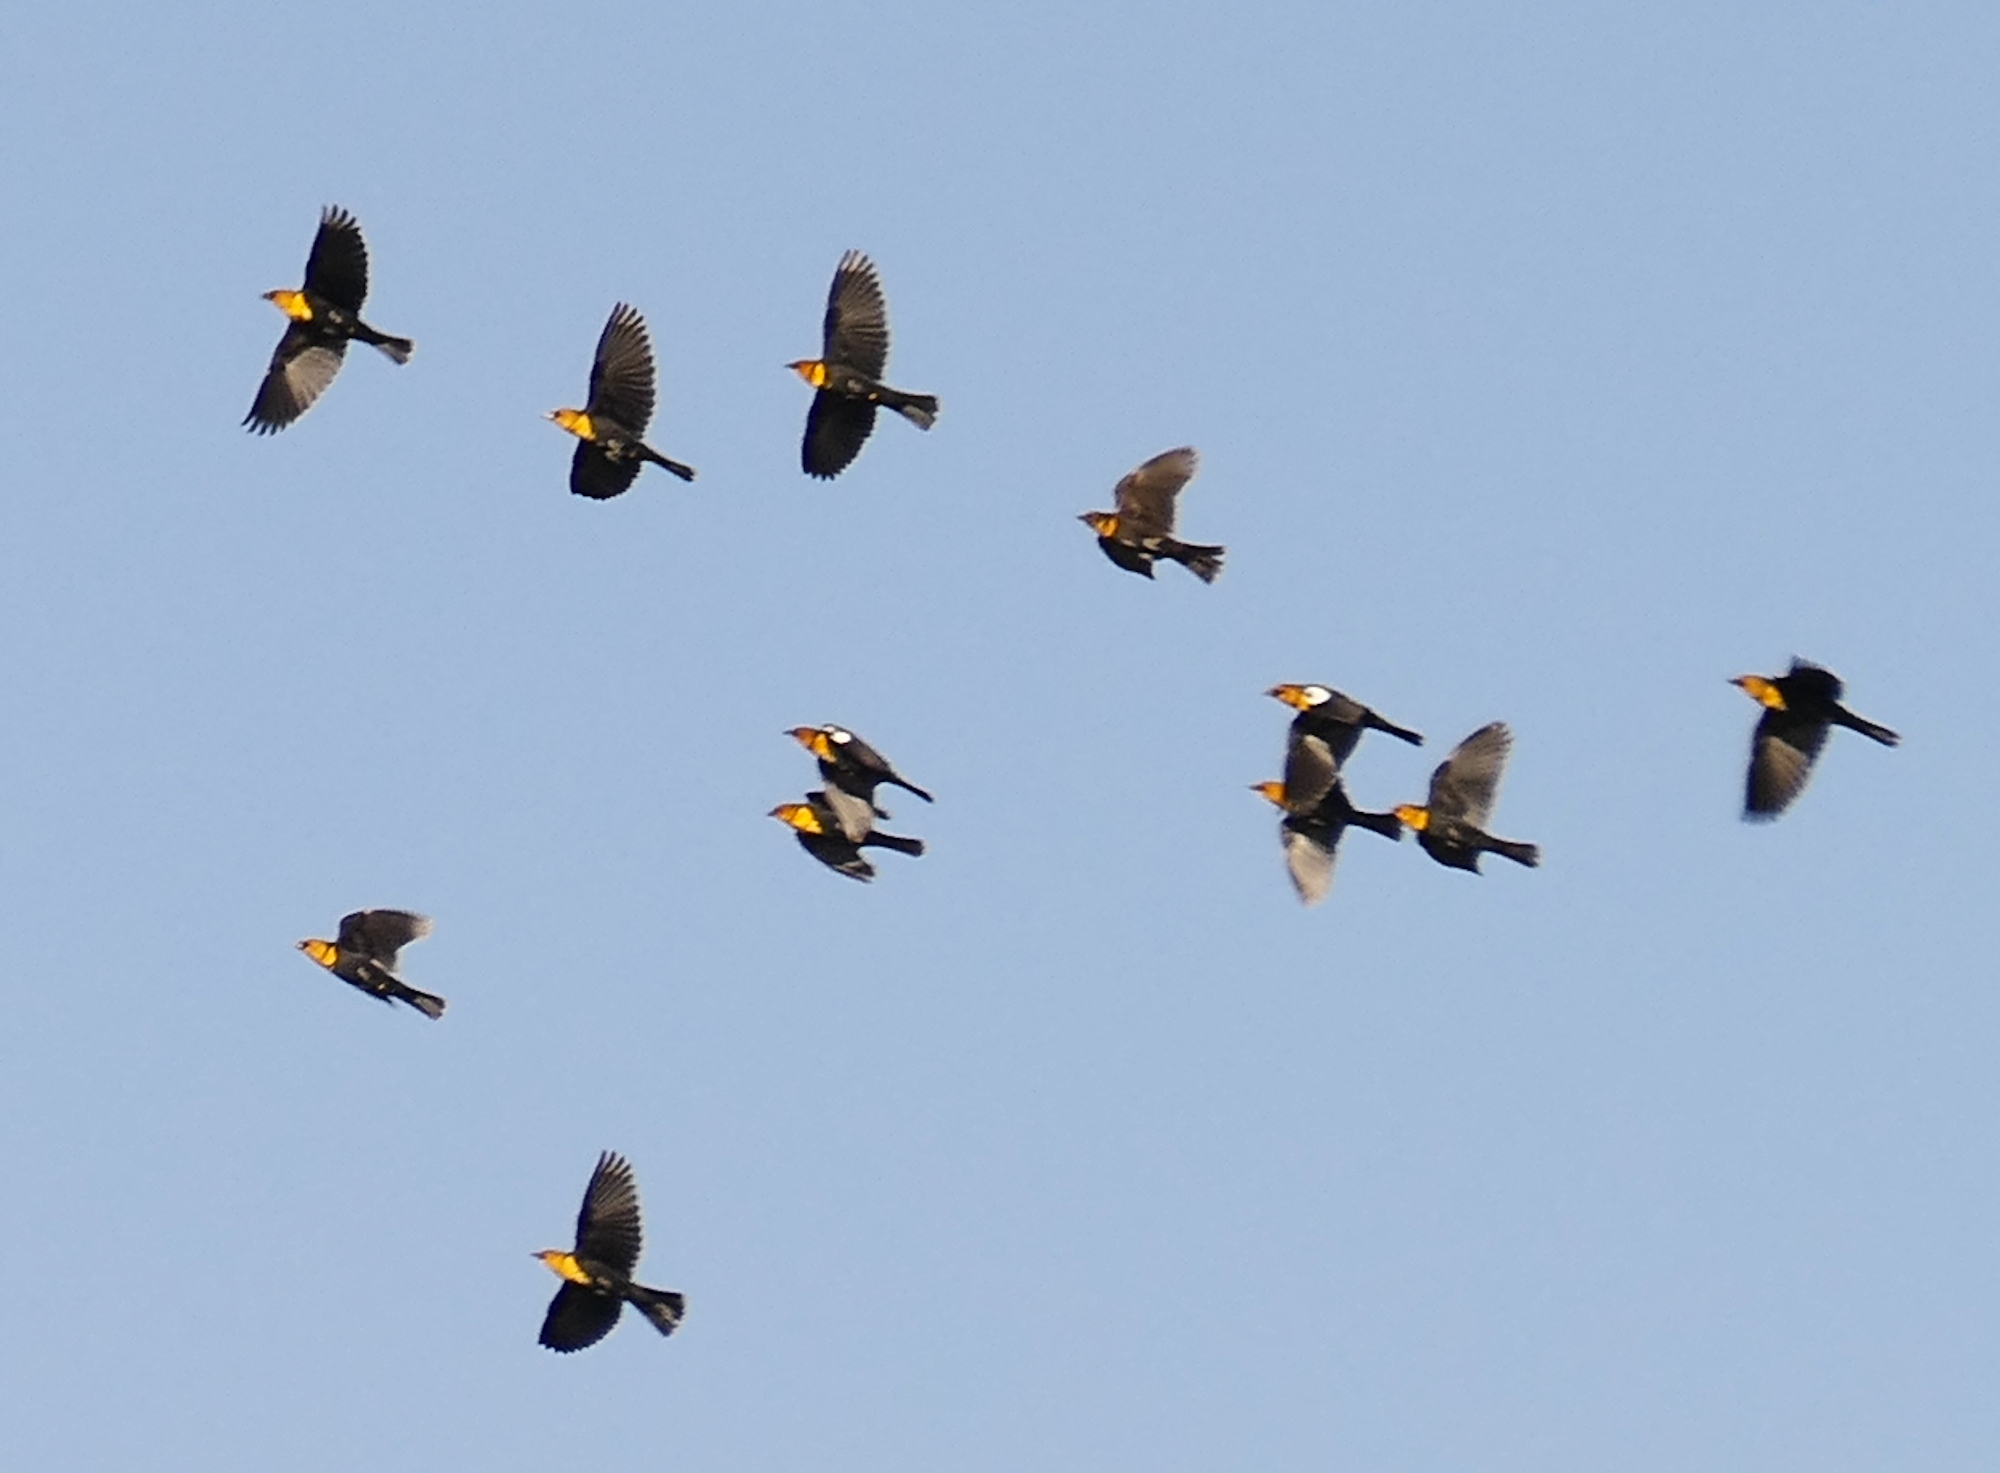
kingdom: Animalia
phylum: Chordata
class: Aves
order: Passeriformes
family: Icteridae
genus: Xanthocephalus
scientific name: Xanthocephalus xanthocephalus
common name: Yellow-headed blackbird
